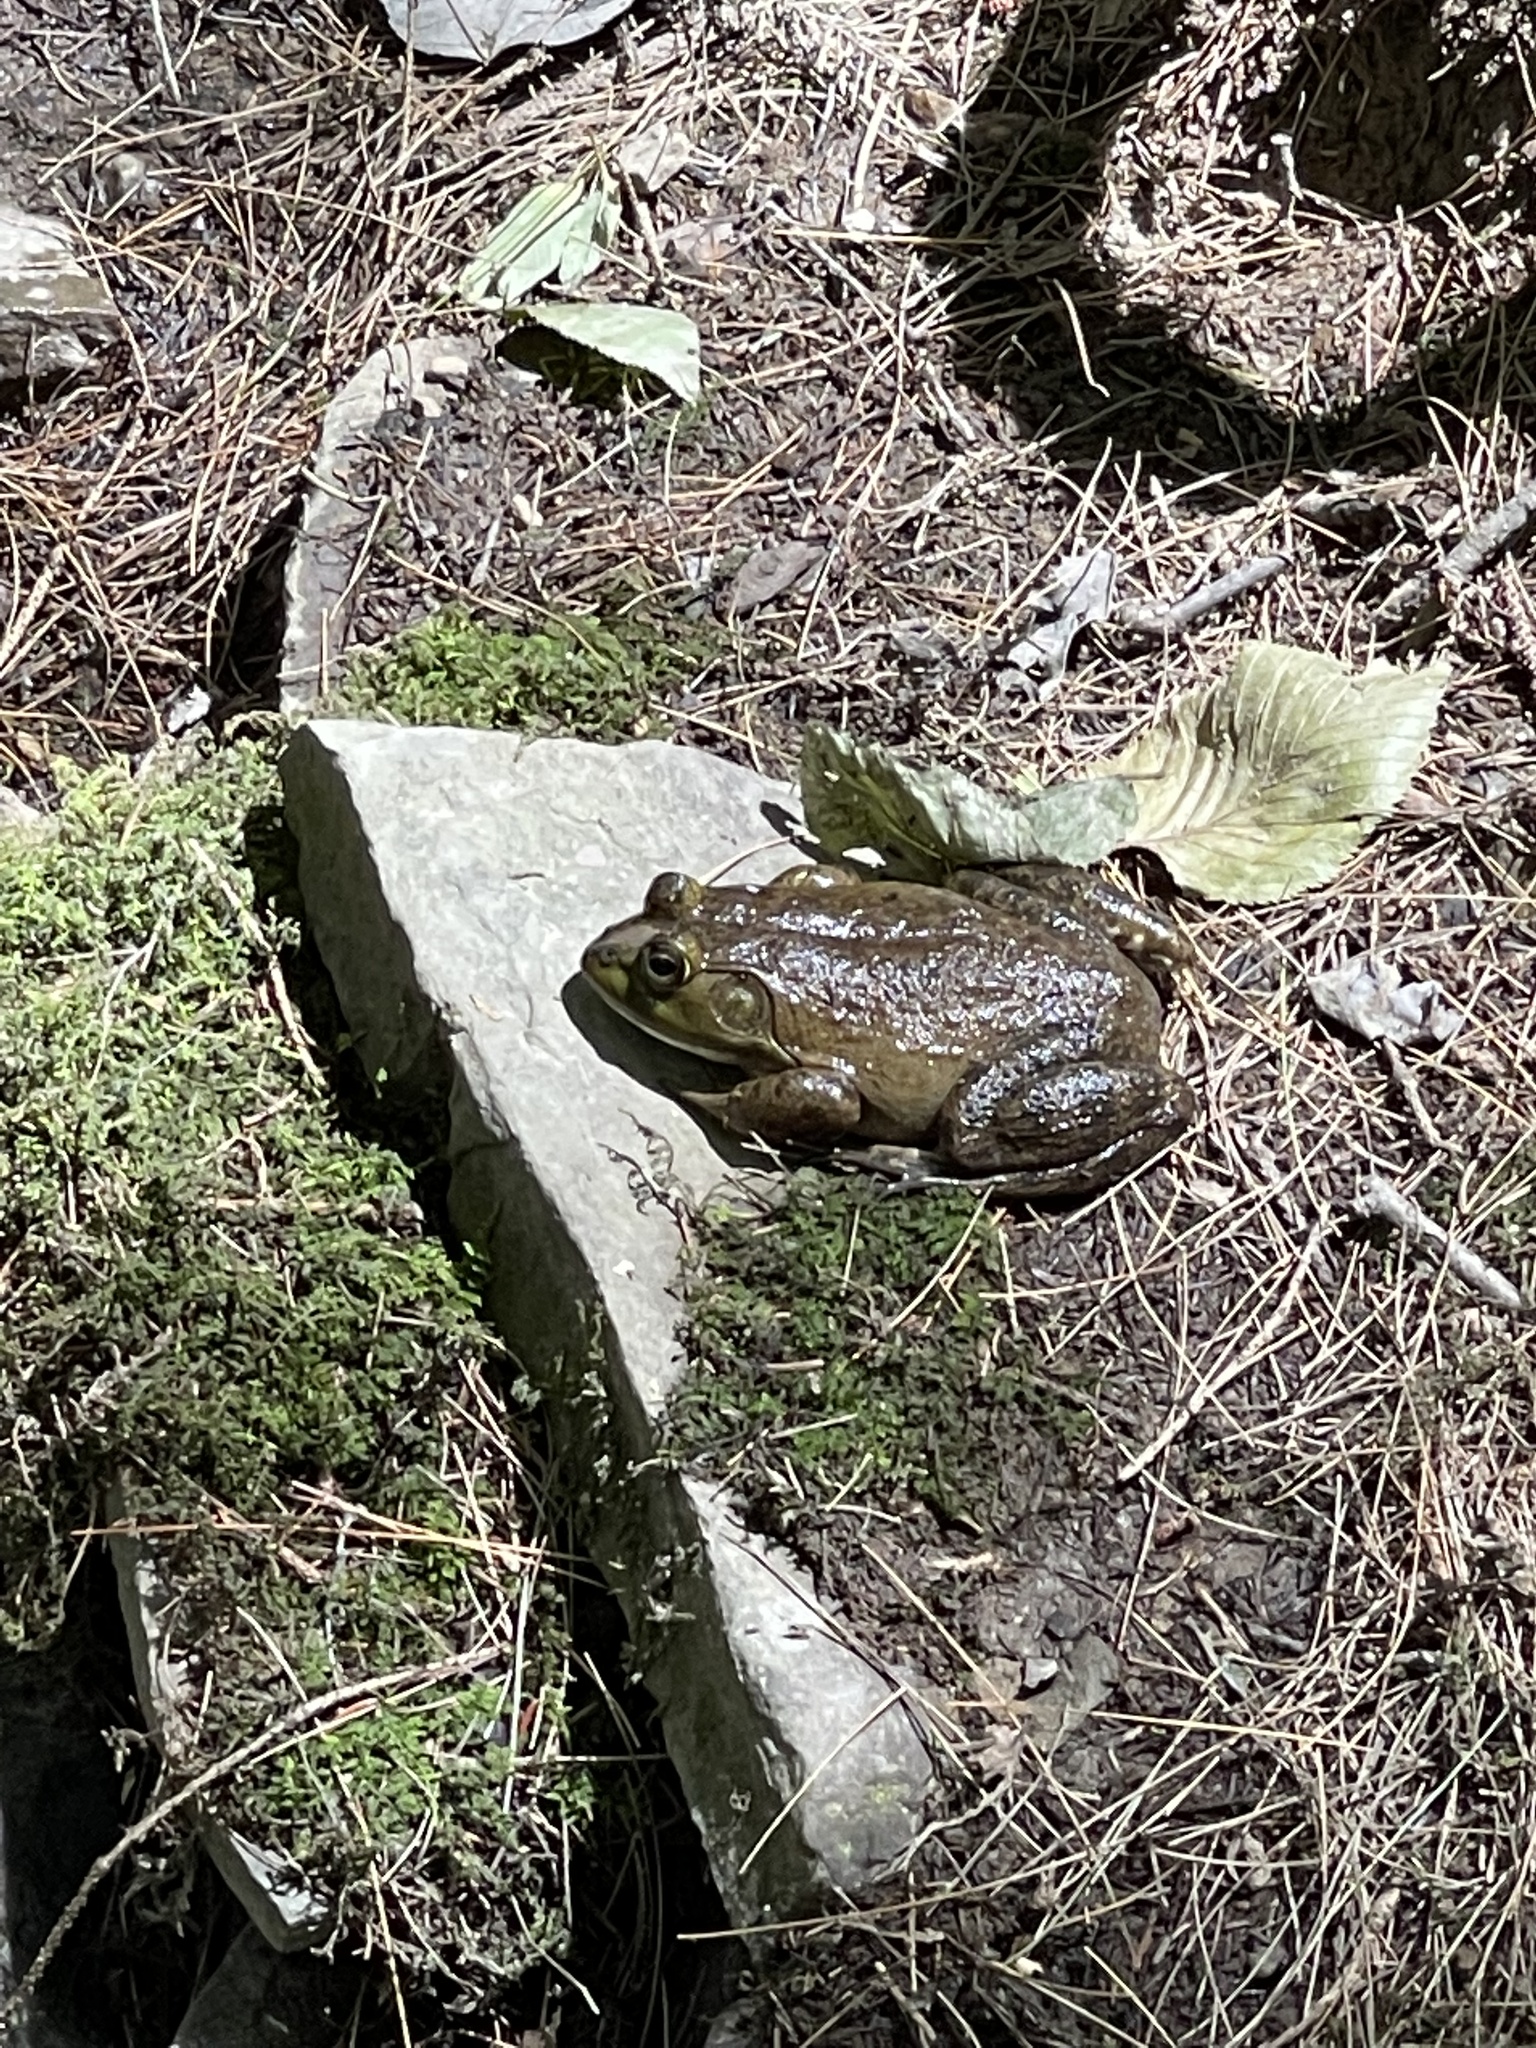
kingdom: Animalia
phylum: Chordata
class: Amphibia
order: Anura
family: Ranidae
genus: Lithobates
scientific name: Lithobates catesbeianus
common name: American bullfrog
